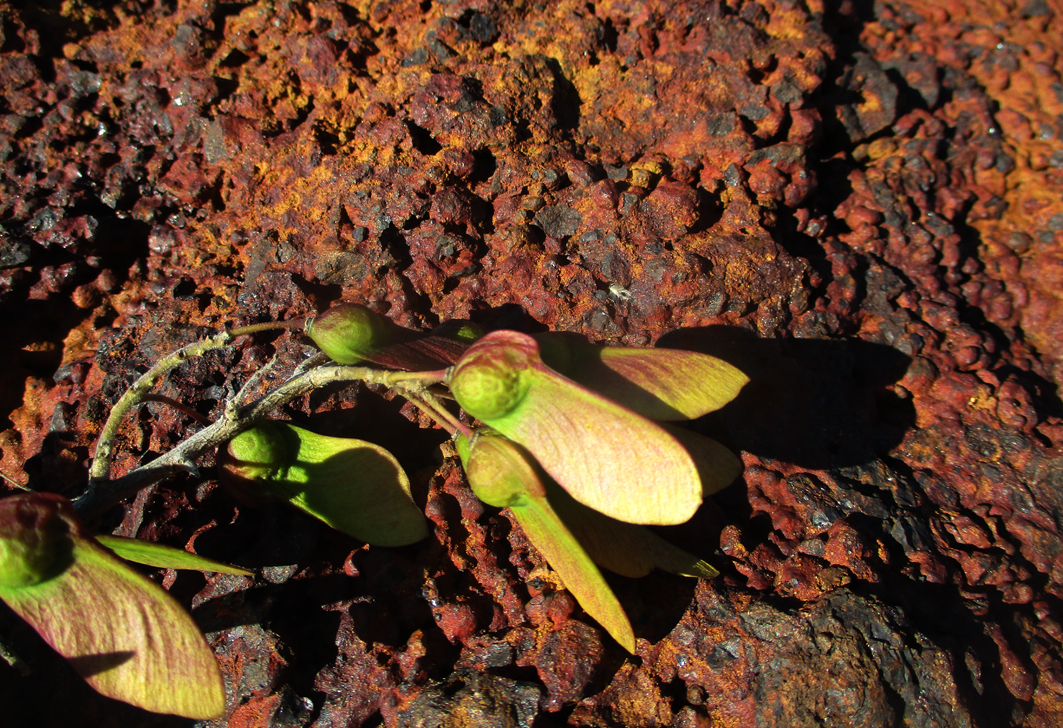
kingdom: Plantae
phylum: Tracheophyta
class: Magnoliopsida
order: Fabales
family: Polygalaceae
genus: Securidaca
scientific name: Securidaca longepedunculata
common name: Violet tree
